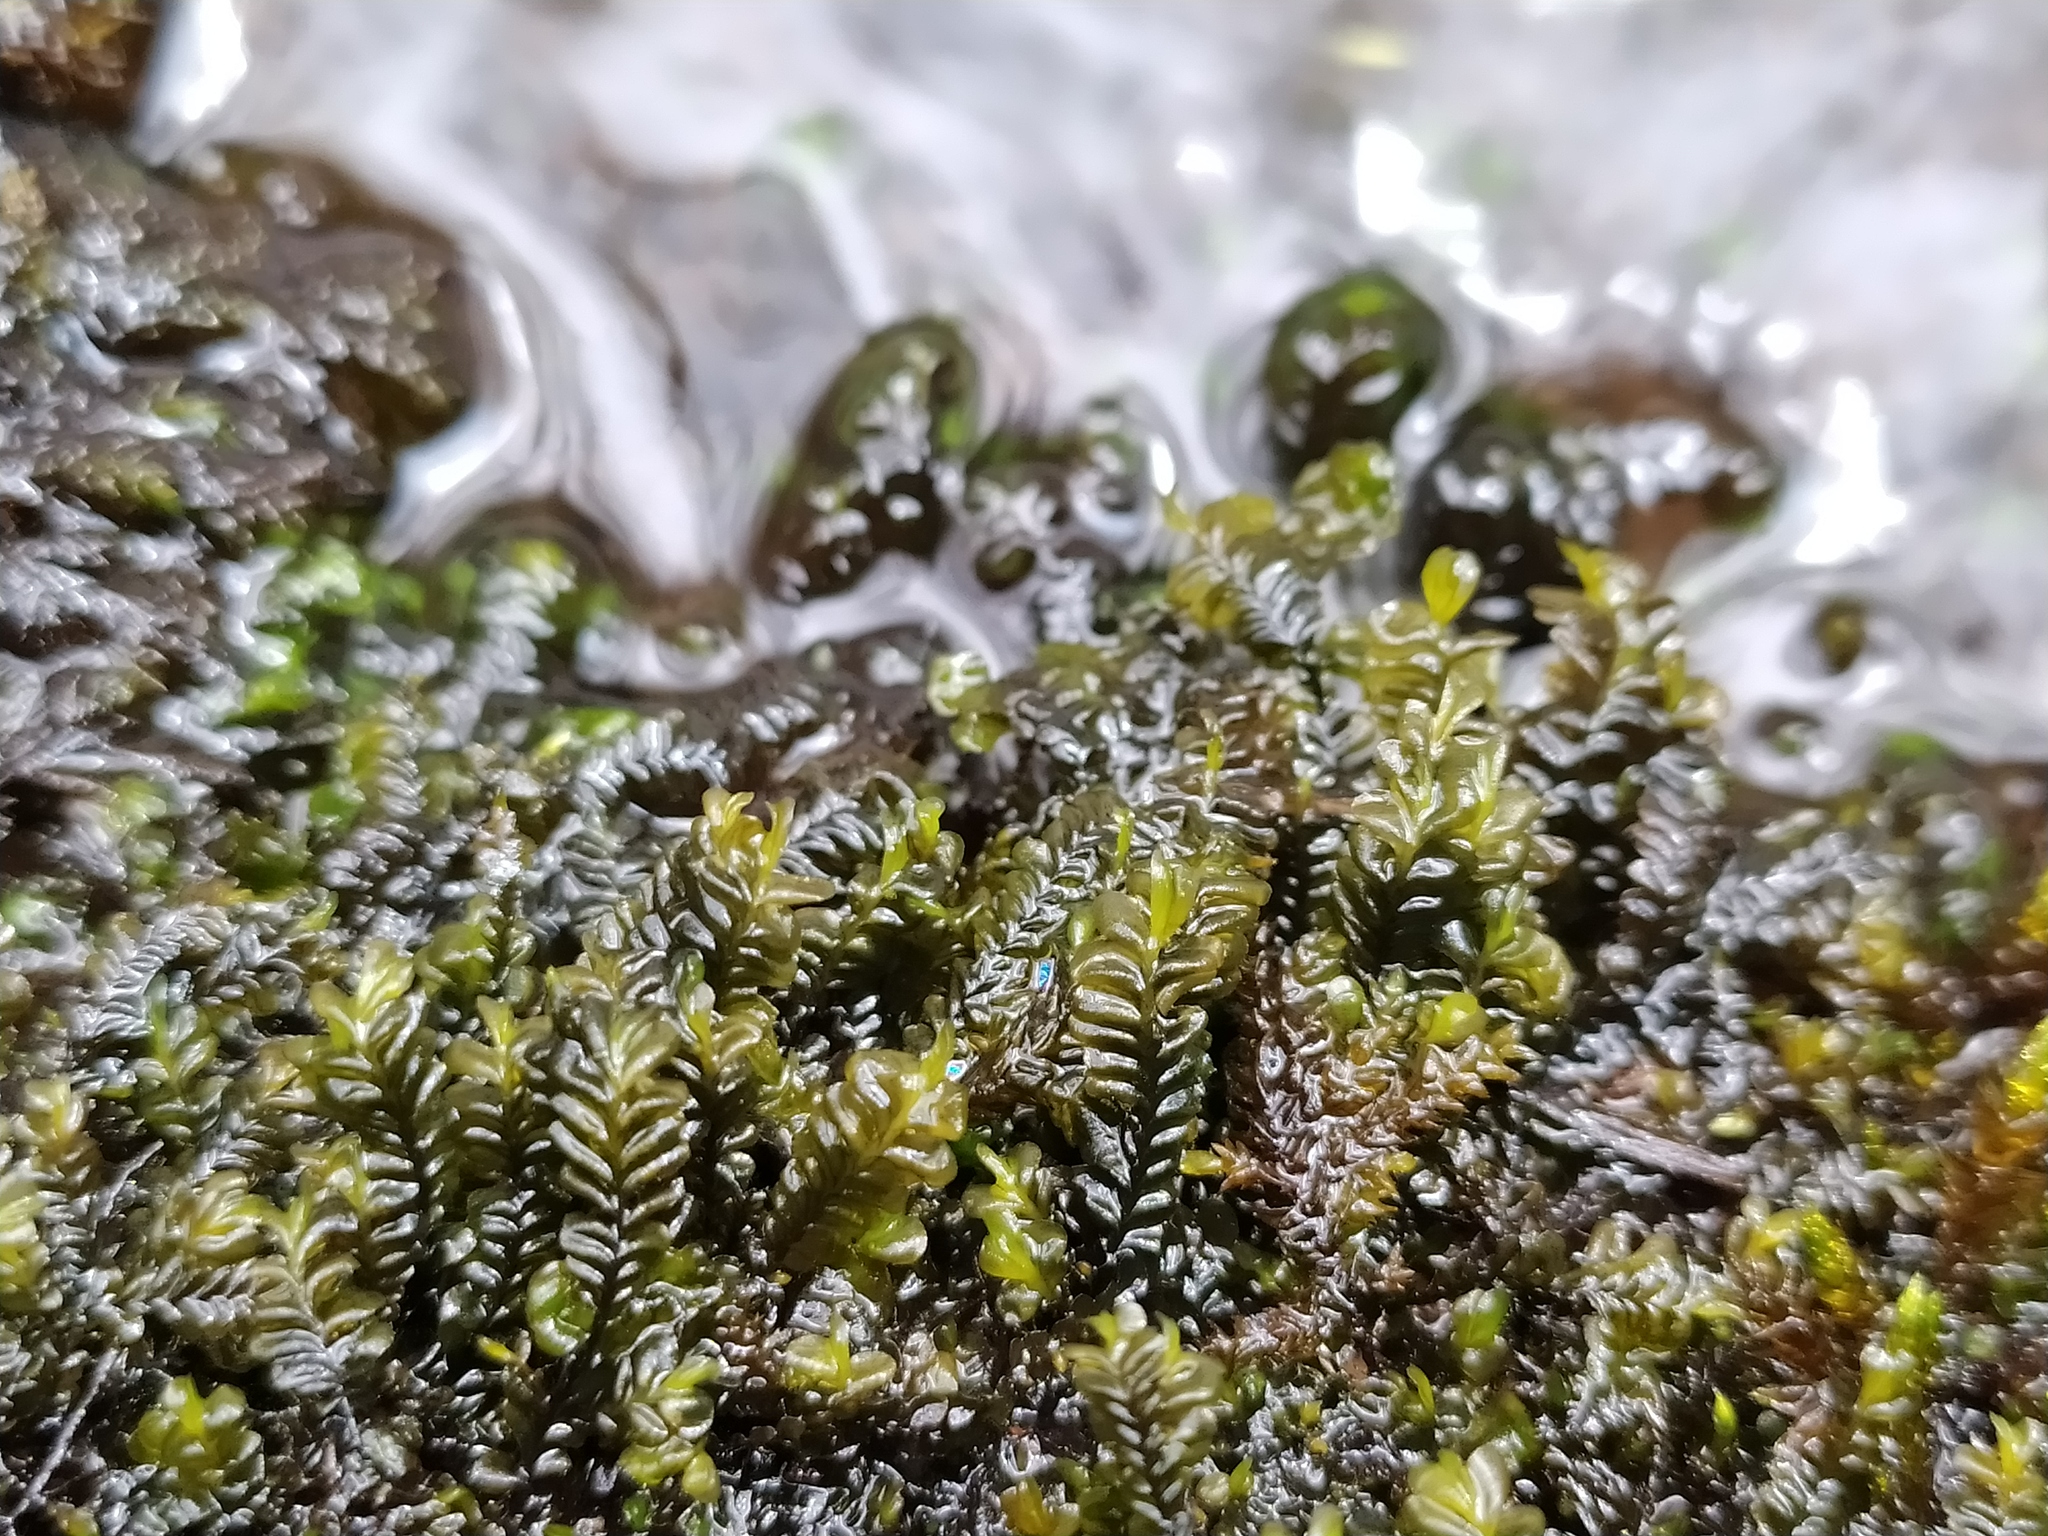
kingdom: Plantae
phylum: Marchantiophyta
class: Jungermanniopsida
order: Jungermanniales
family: Lophocoleaceae
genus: Chiloscyphus
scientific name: Chiloscyphus polyanthos
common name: Square-leaved crestwort
